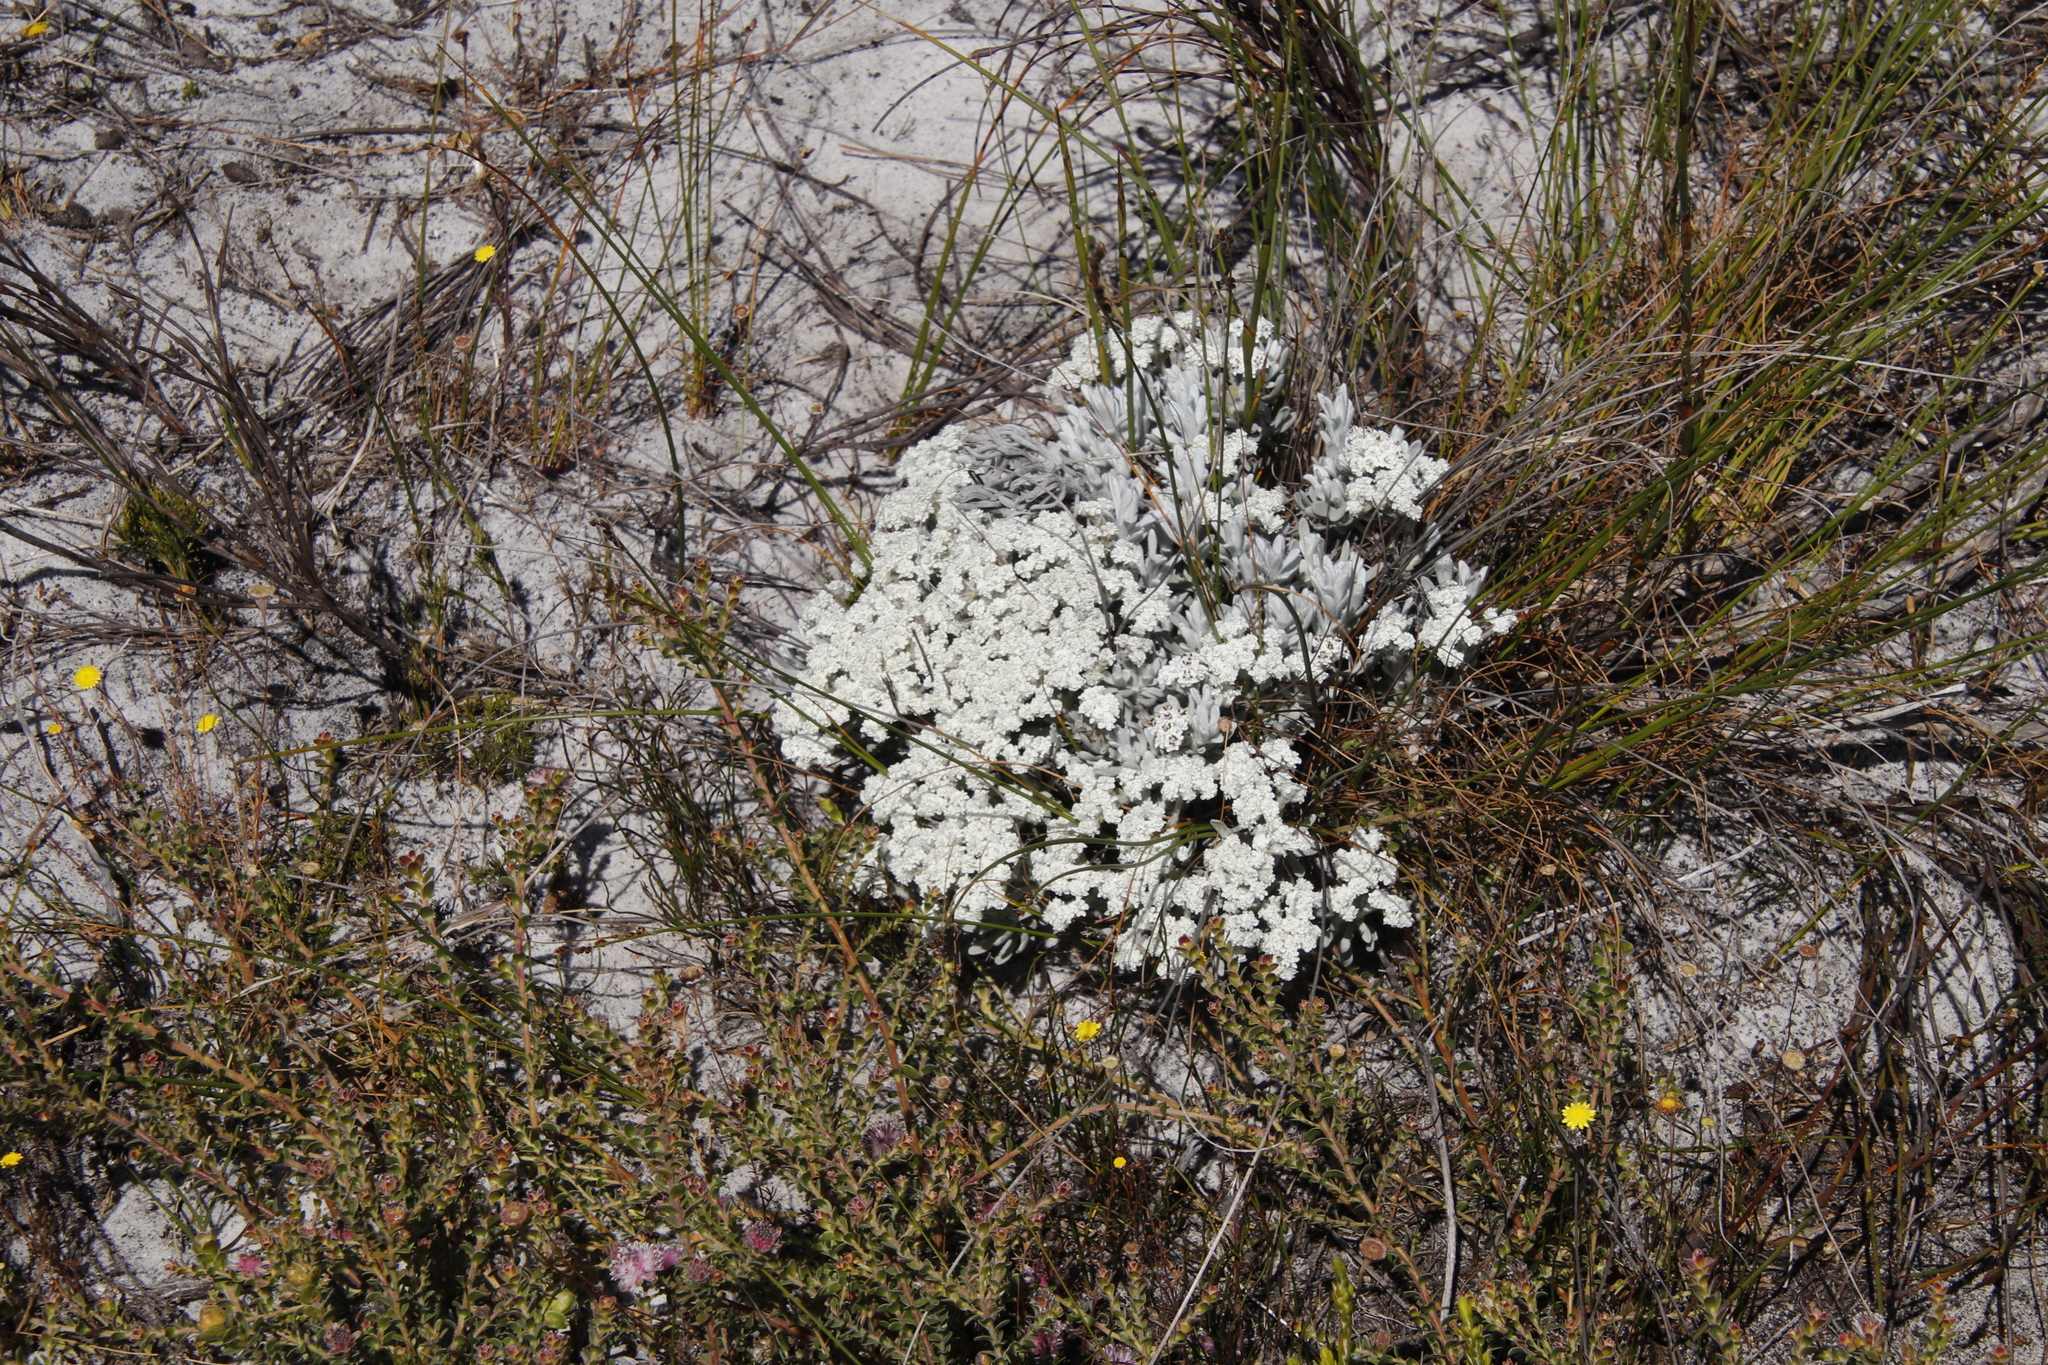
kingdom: Plantae
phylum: Tracheophyta
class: Magnoliopsida
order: Asterales
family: Asteraceae
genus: Petalacte
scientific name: Petalacte coronata
